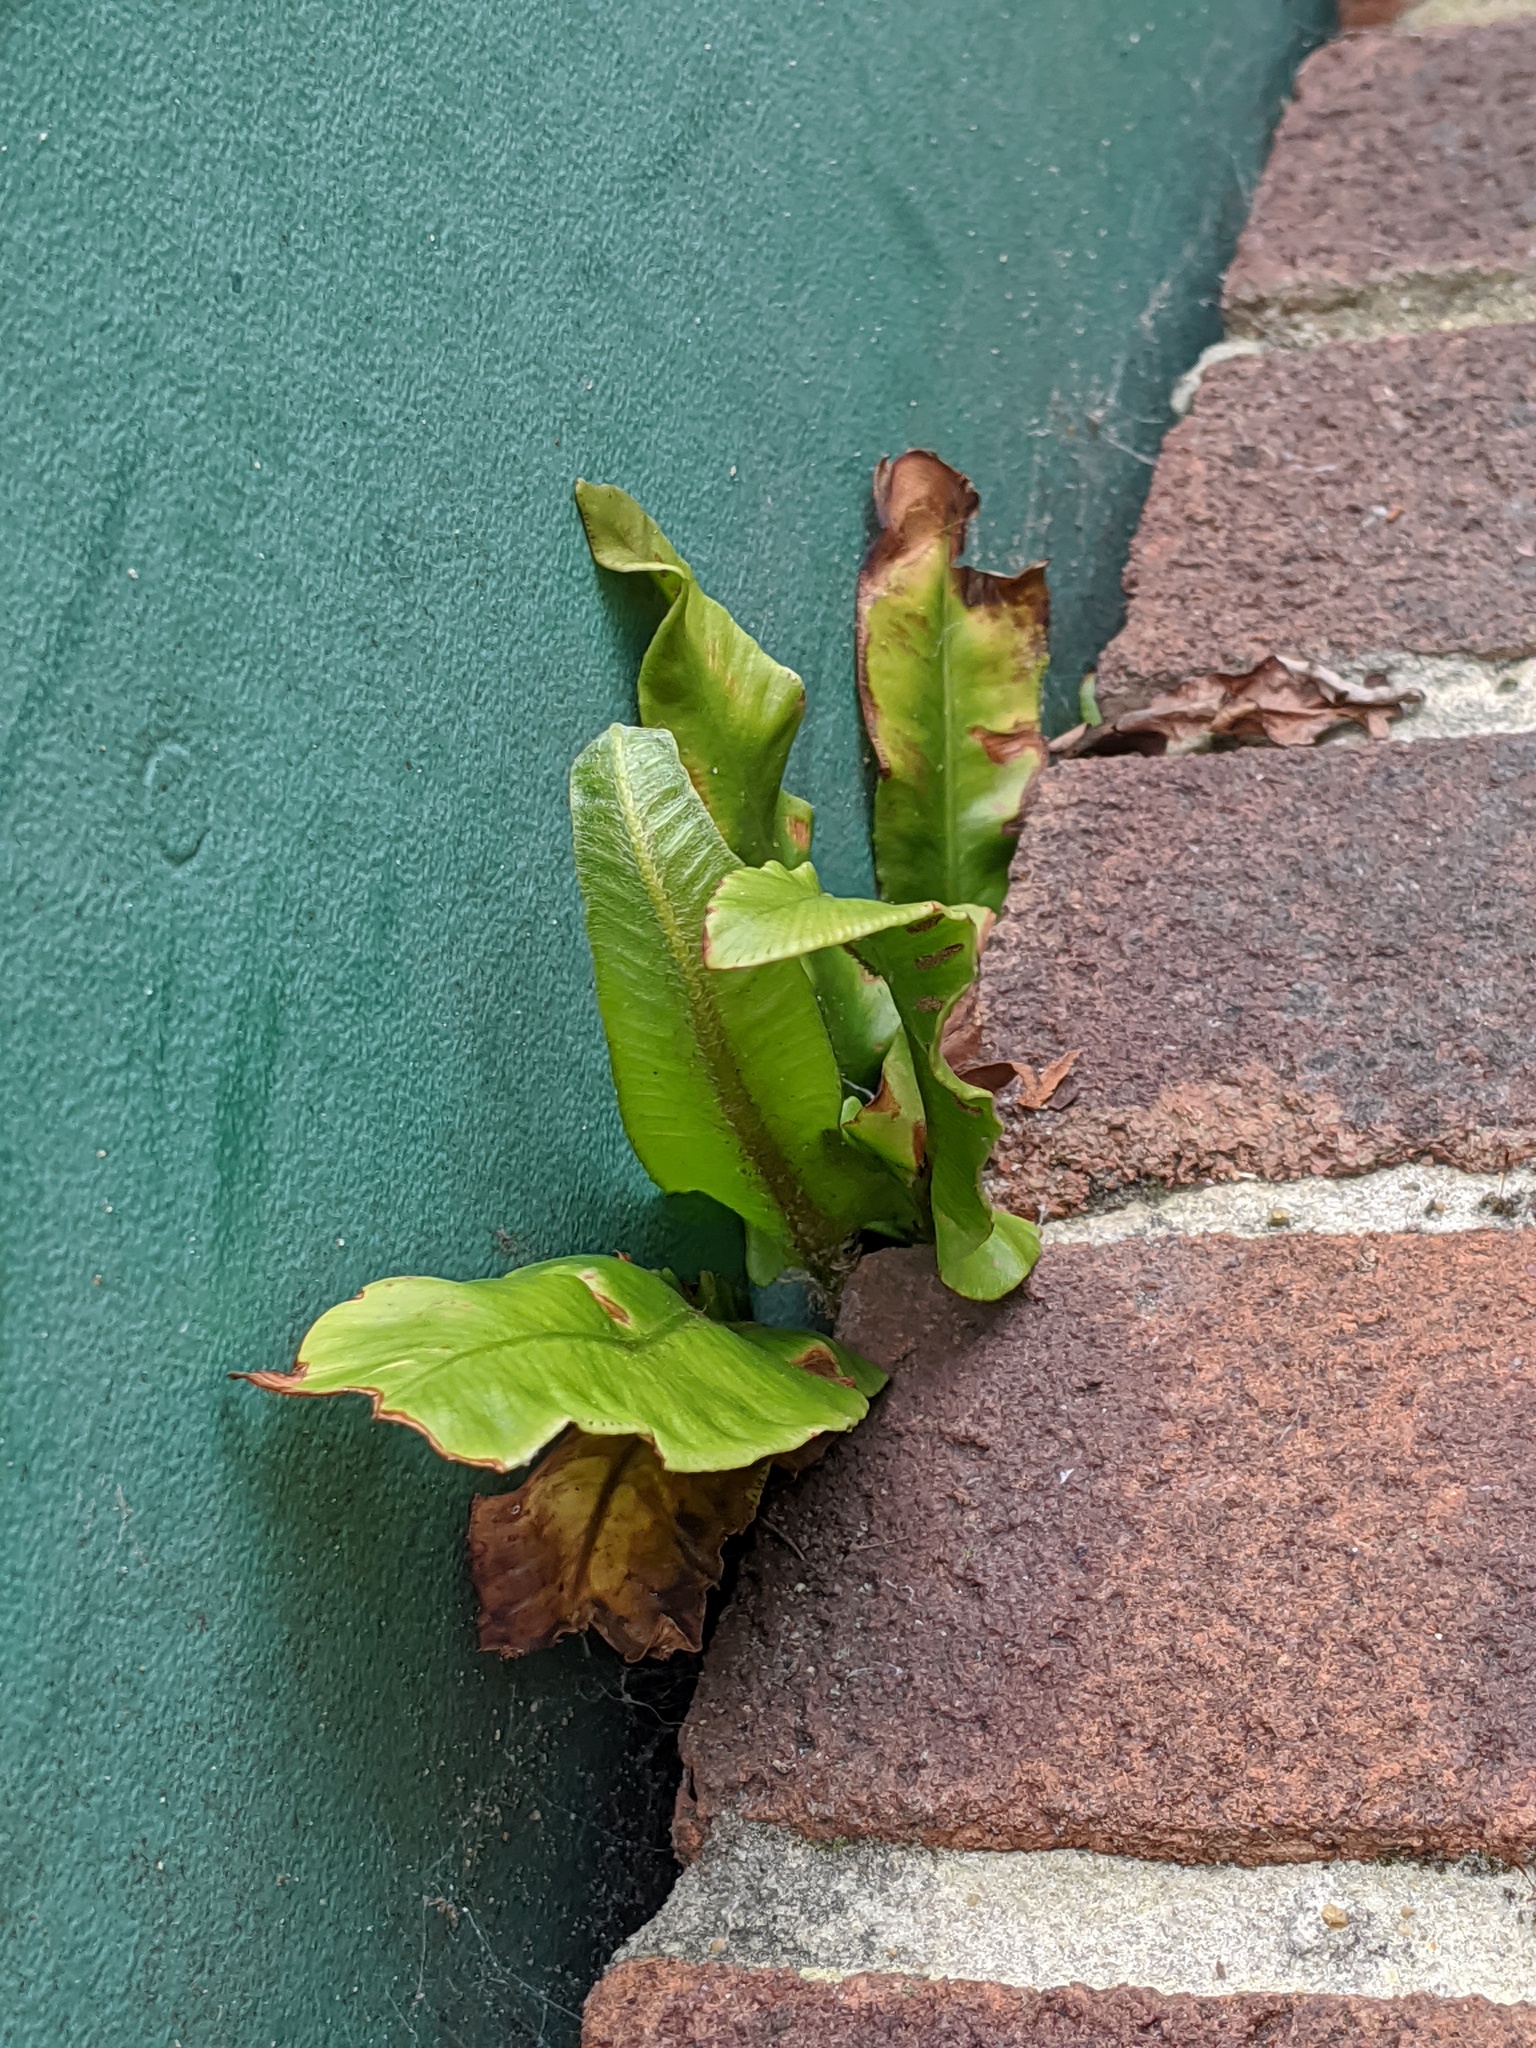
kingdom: Plantae
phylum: Tracheophyta
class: Polypodiopsida
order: Polypodiales
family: Aspleniaceae
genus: Asplenium
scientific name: Asplenium scolopendrium
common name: Hart's-tongue fern
